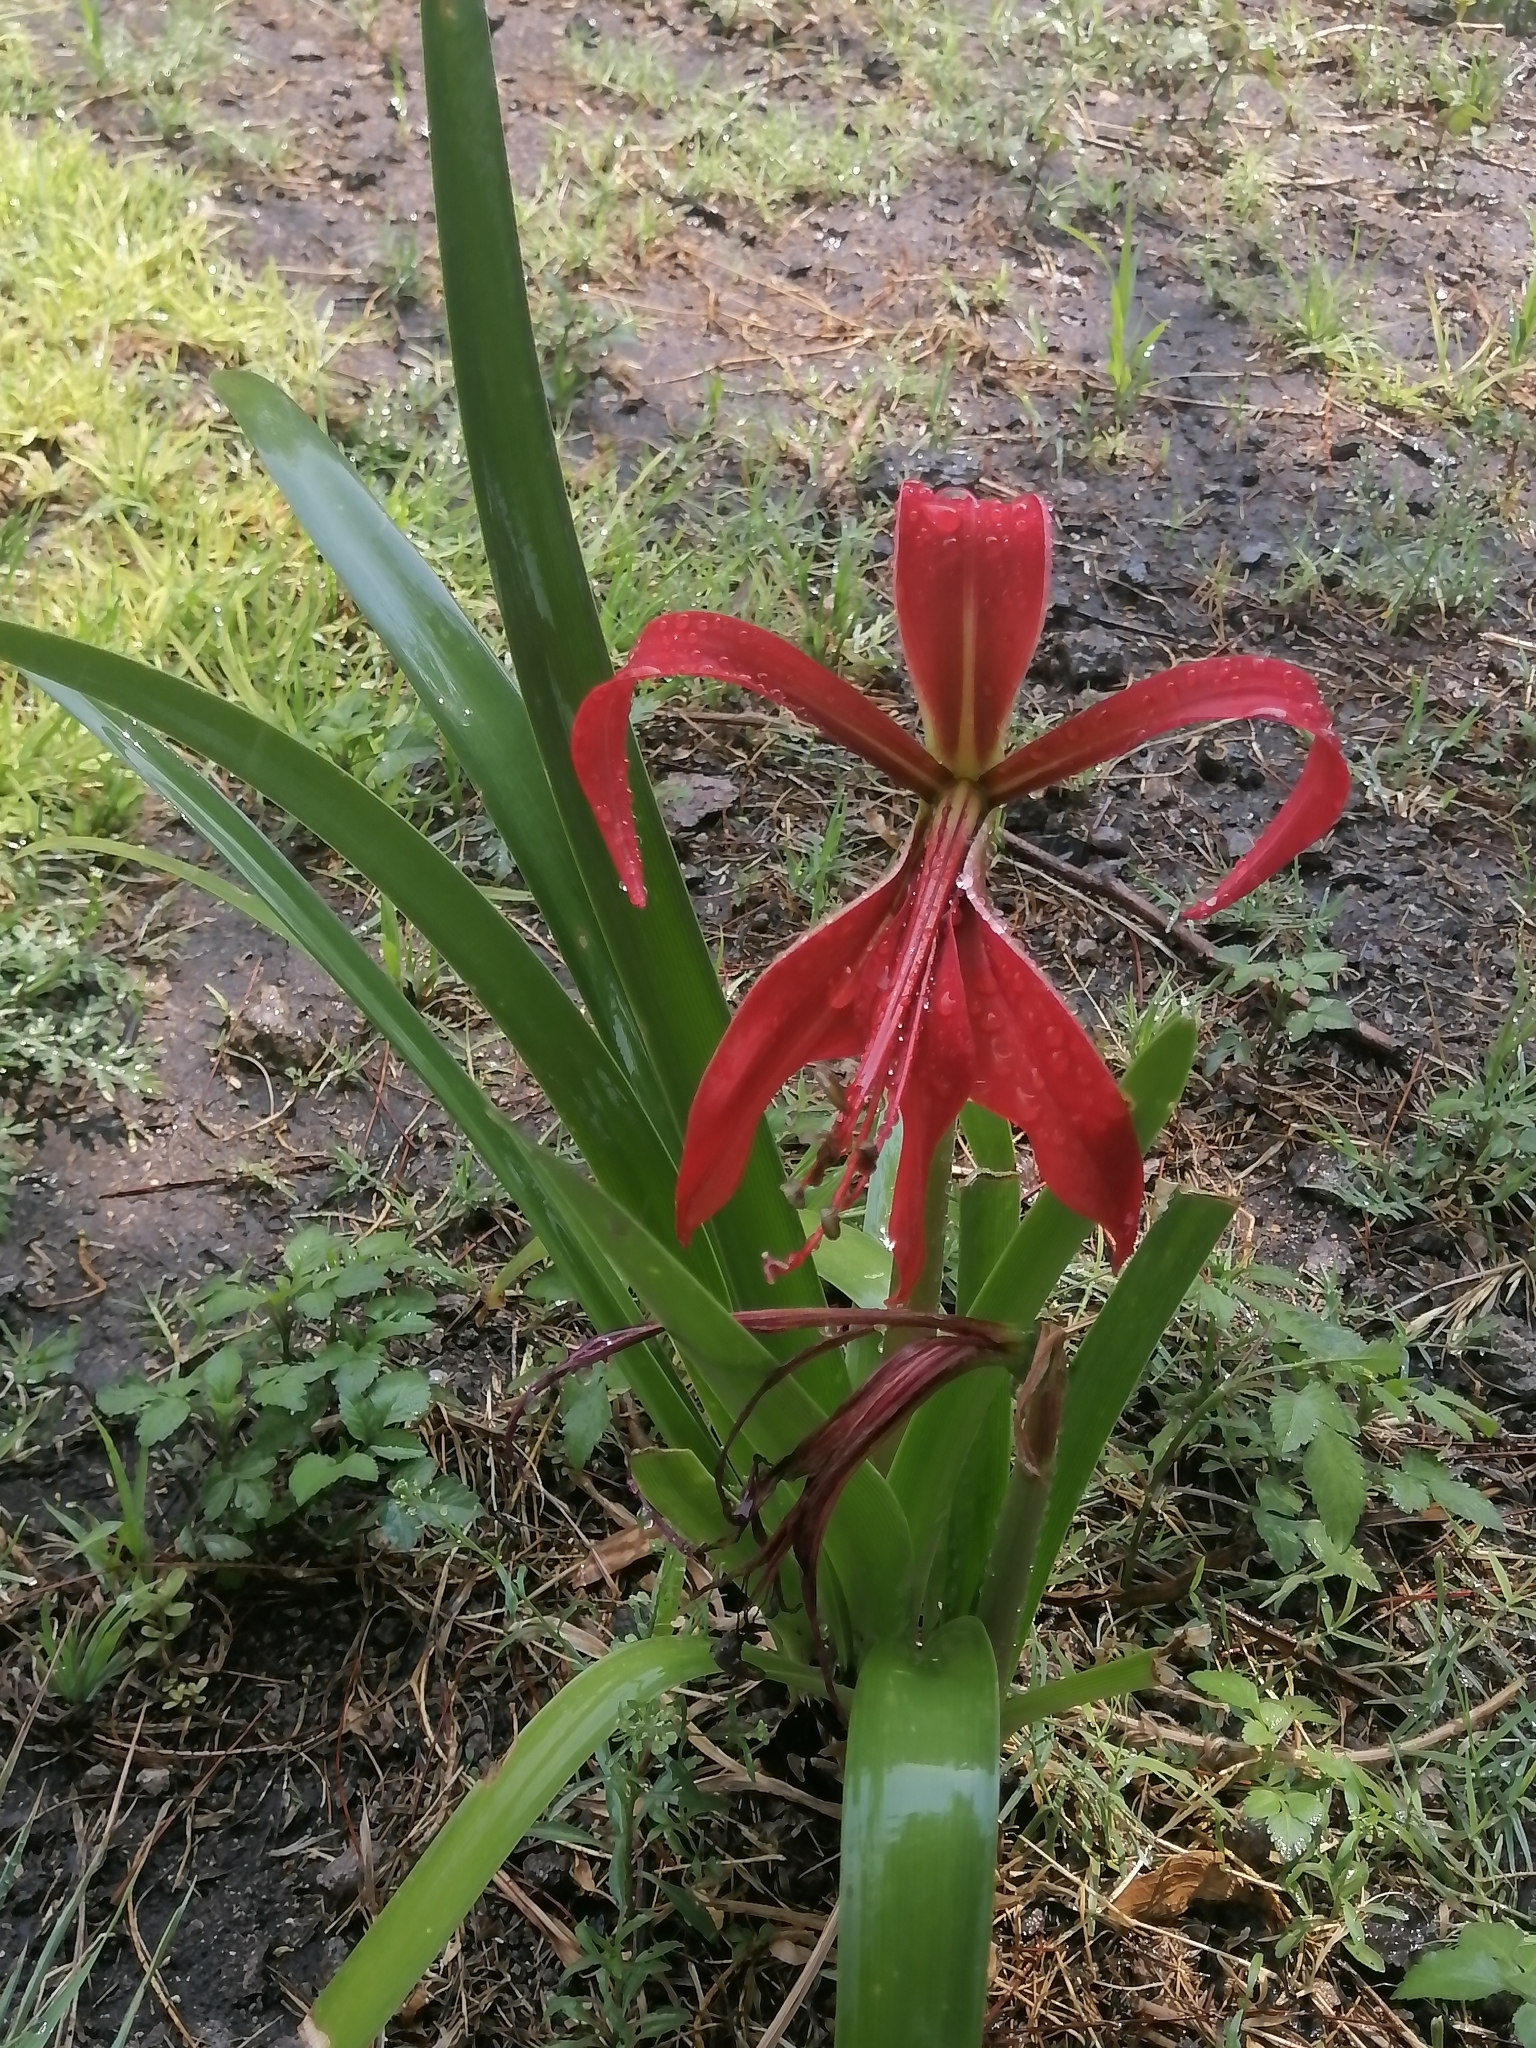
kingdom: Plantae
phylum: Tracheophyta
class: Liliopsida
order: Asparagales
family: Amaryllidaceae
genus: Sprekelia
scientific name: Sprekelia formosissima
